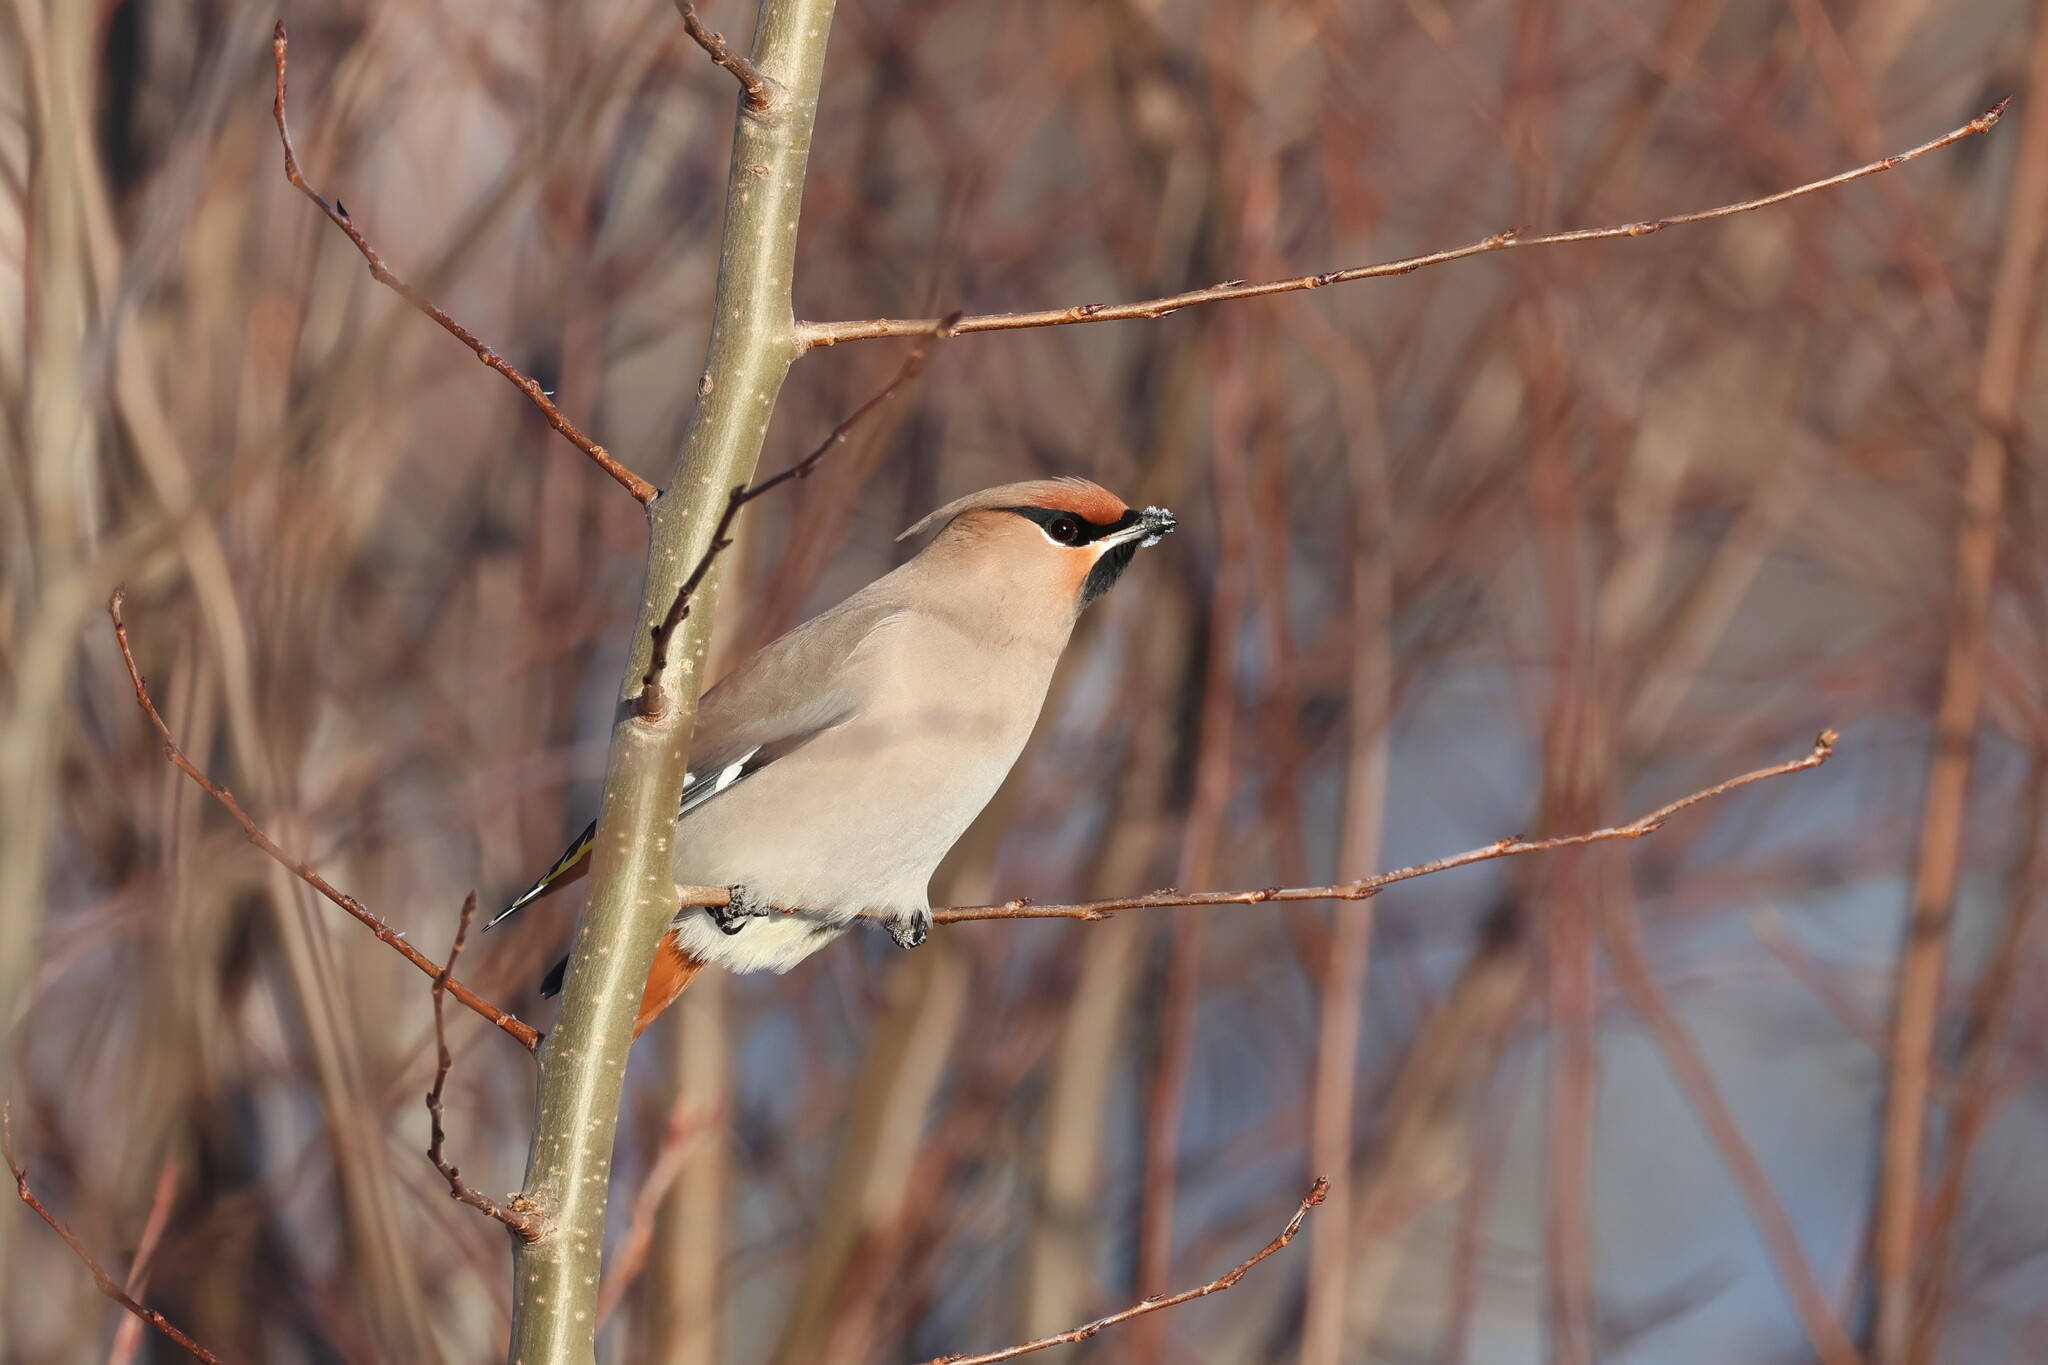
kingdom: Animalia
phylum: Chordata
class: Aves
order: Passeriformes
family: Bombycillidae
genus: Bombycilla
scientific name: Bombycilla garrulus
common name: Bohemian waxwing
